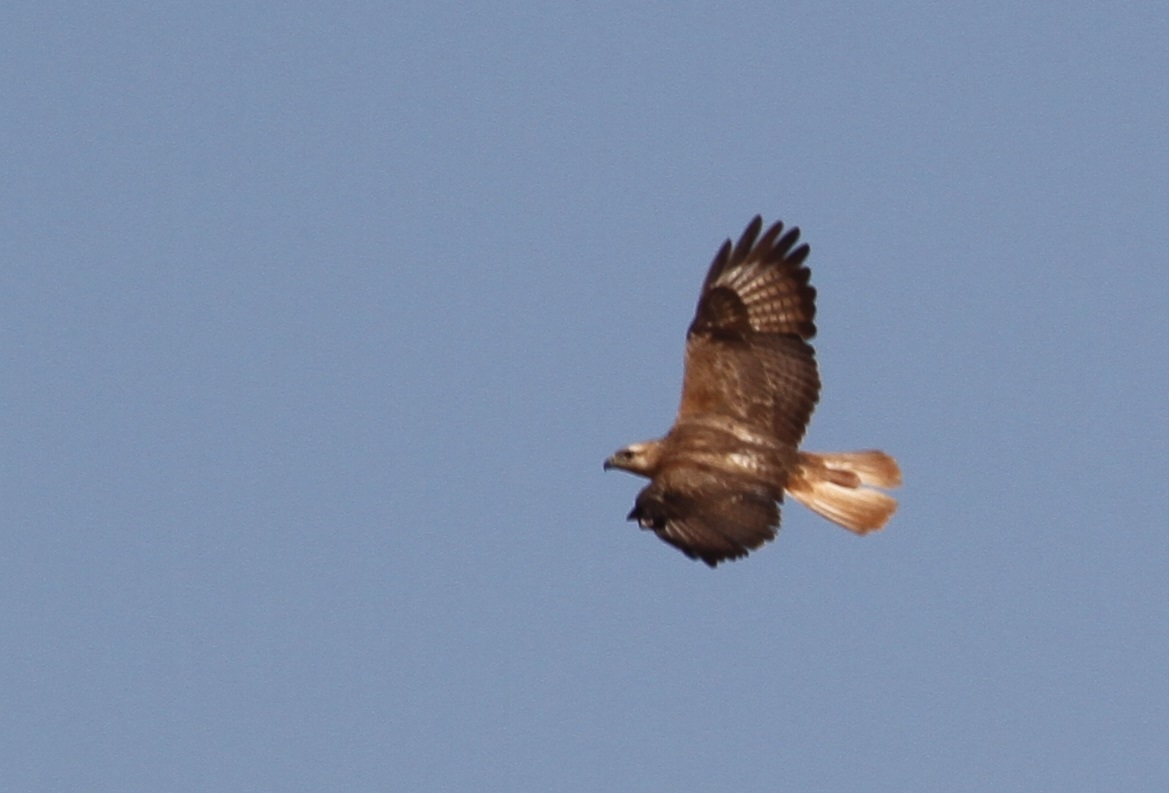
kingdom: Animalia
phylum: Chordata
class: Aves
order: Accipitriformes
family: Accipitridae
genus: Buteo
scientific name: Buteo rufinus
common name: Long-legged buzzard
